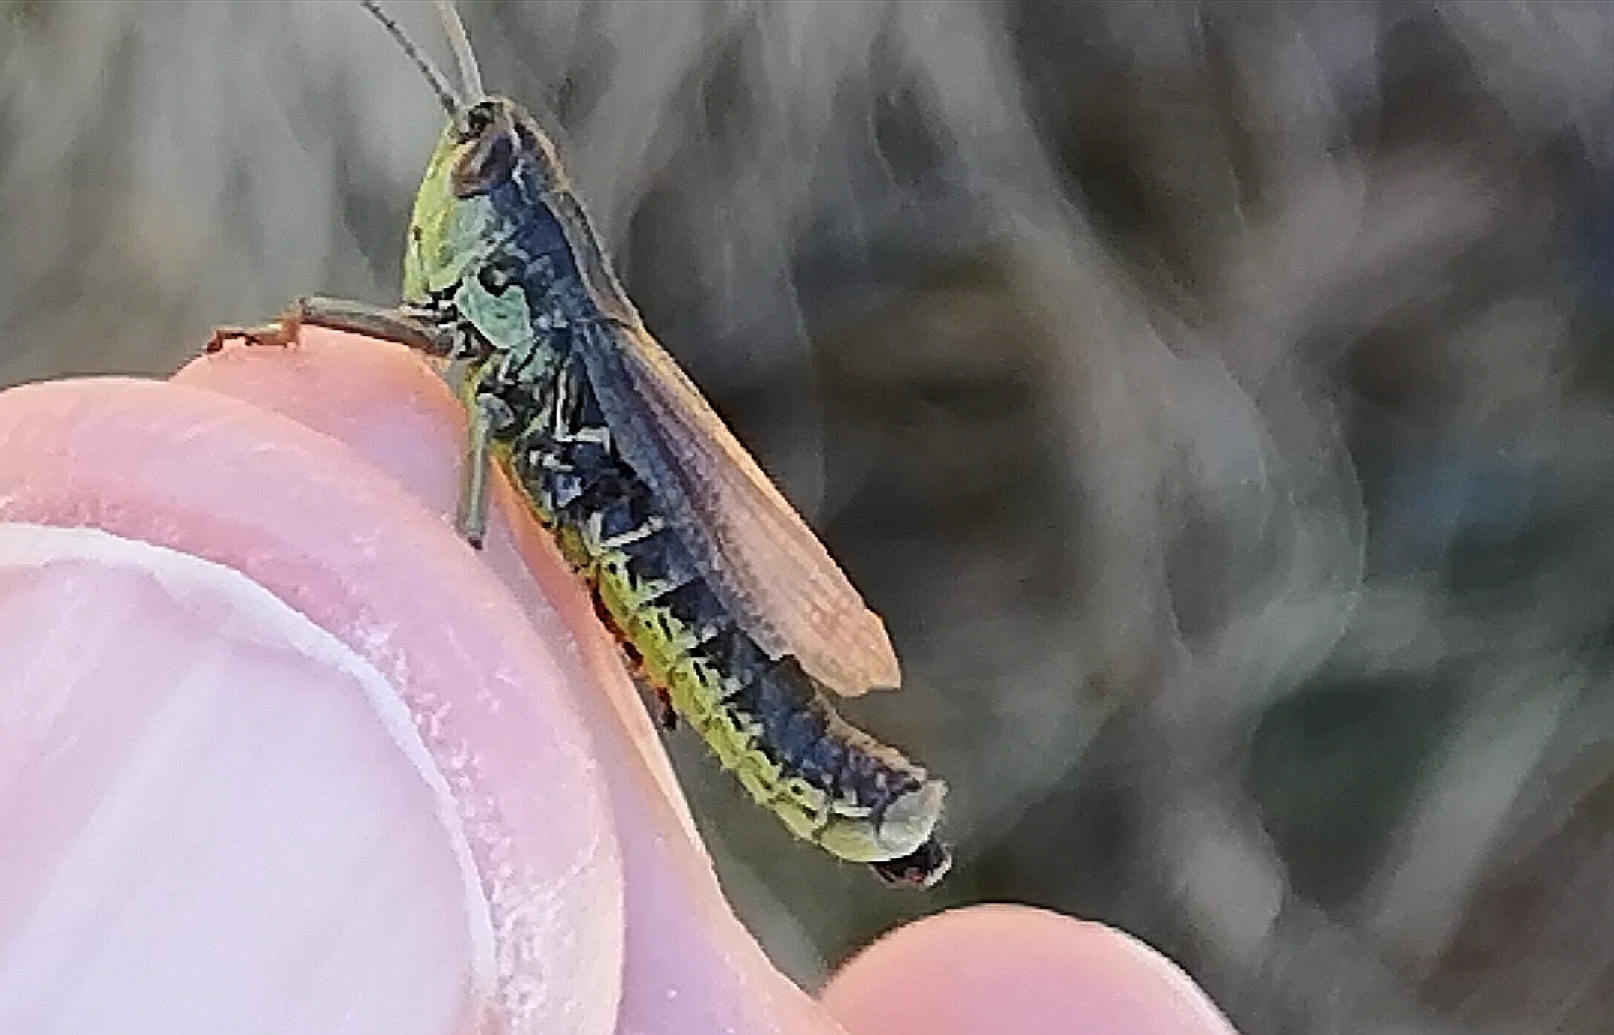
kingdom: Animalia
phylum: Arthropoda
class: Insecta
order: Orthoptera
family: Acrididae
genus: Pseudochorthippus
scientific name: Pseudochorthippus parallelus
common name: Meadow grasshopper
